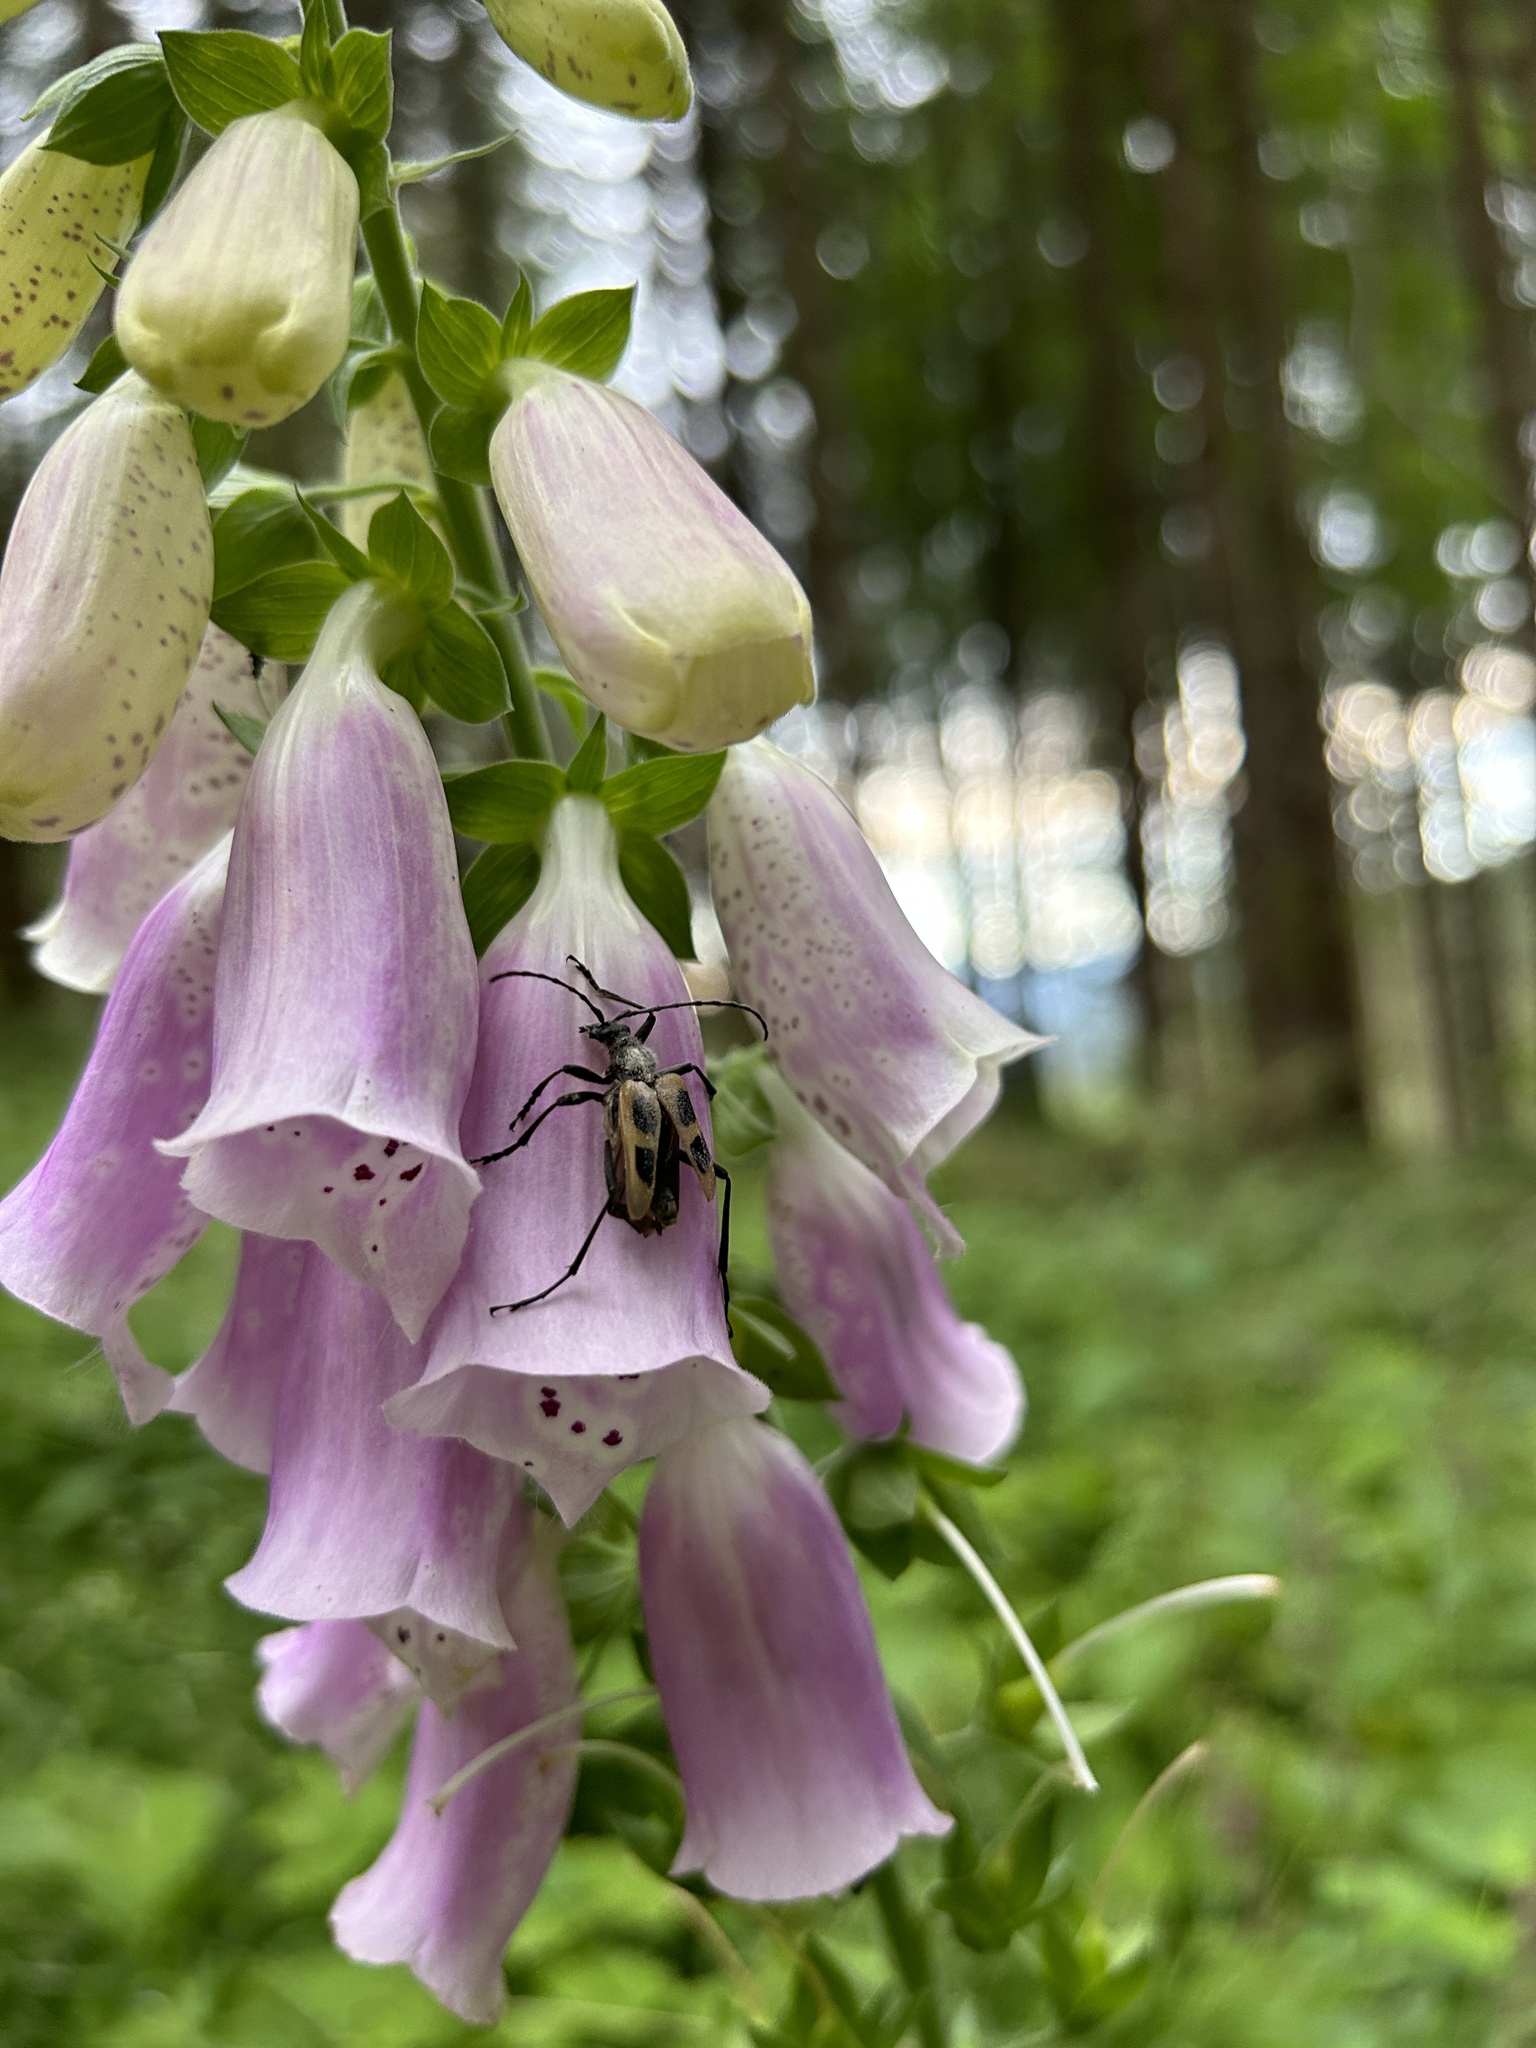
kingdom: Animalia
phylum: Arthropoda
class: Insecta
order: Coleoptera
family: Cerambycidae
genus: Pachyta
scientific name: Pachyta quadrimaculata
